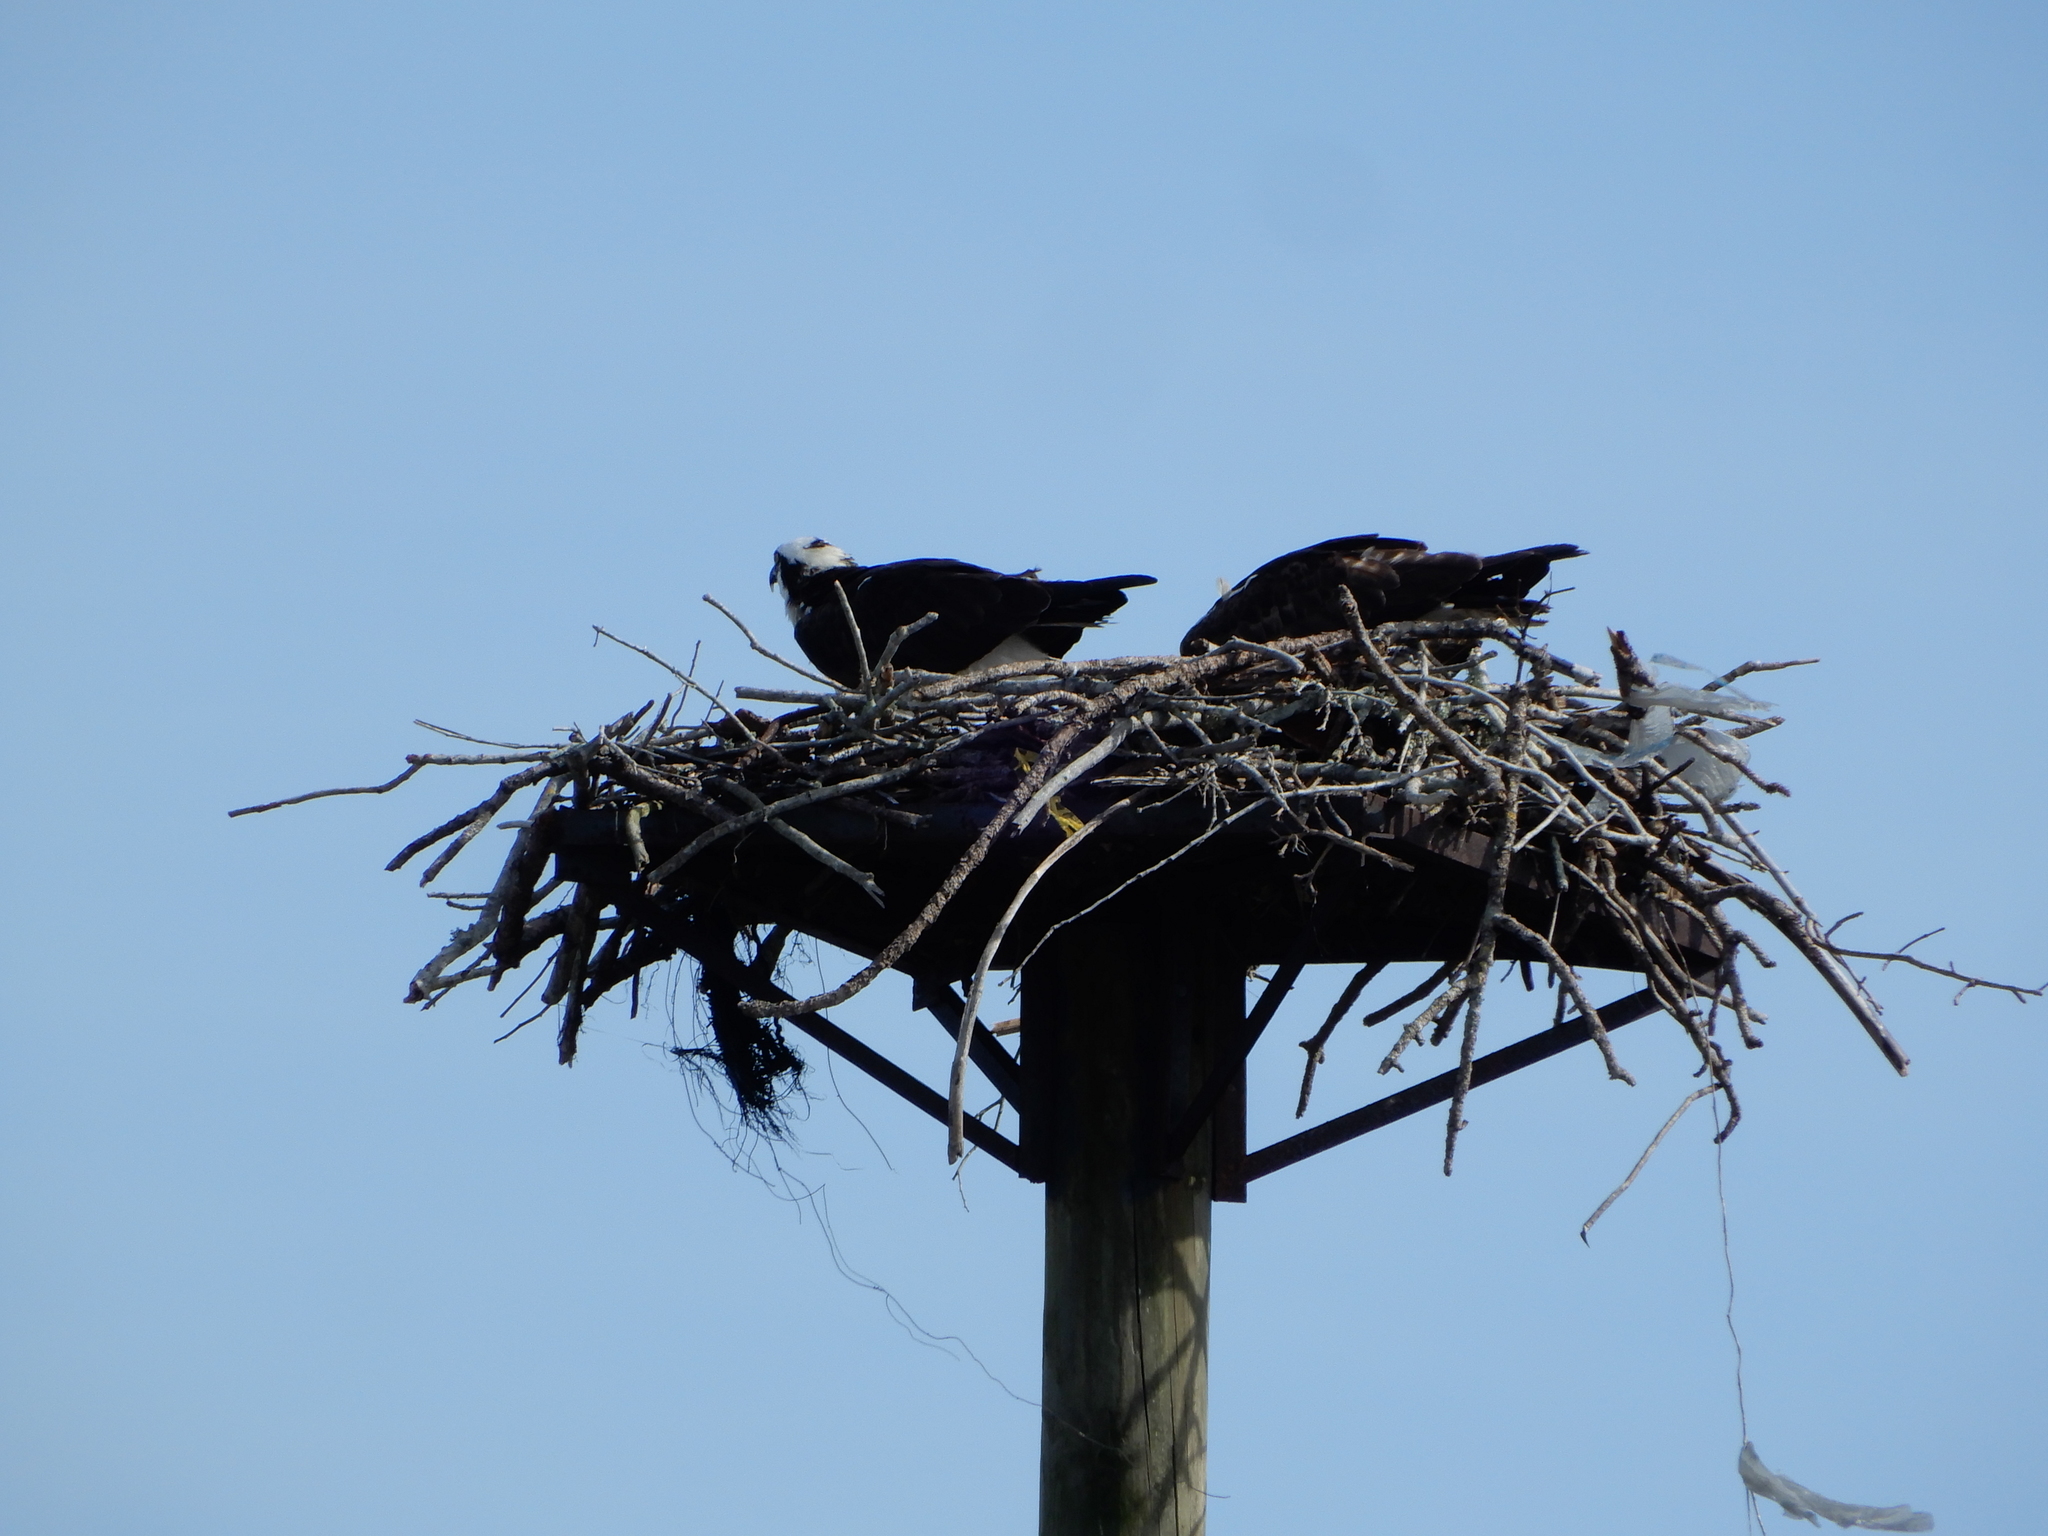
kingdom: Animalia
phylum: Chordata
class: Aves
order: Accipitriformes
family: Pandionidae
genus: Pandion
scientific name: Pandion haliaetus
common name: Osprey
